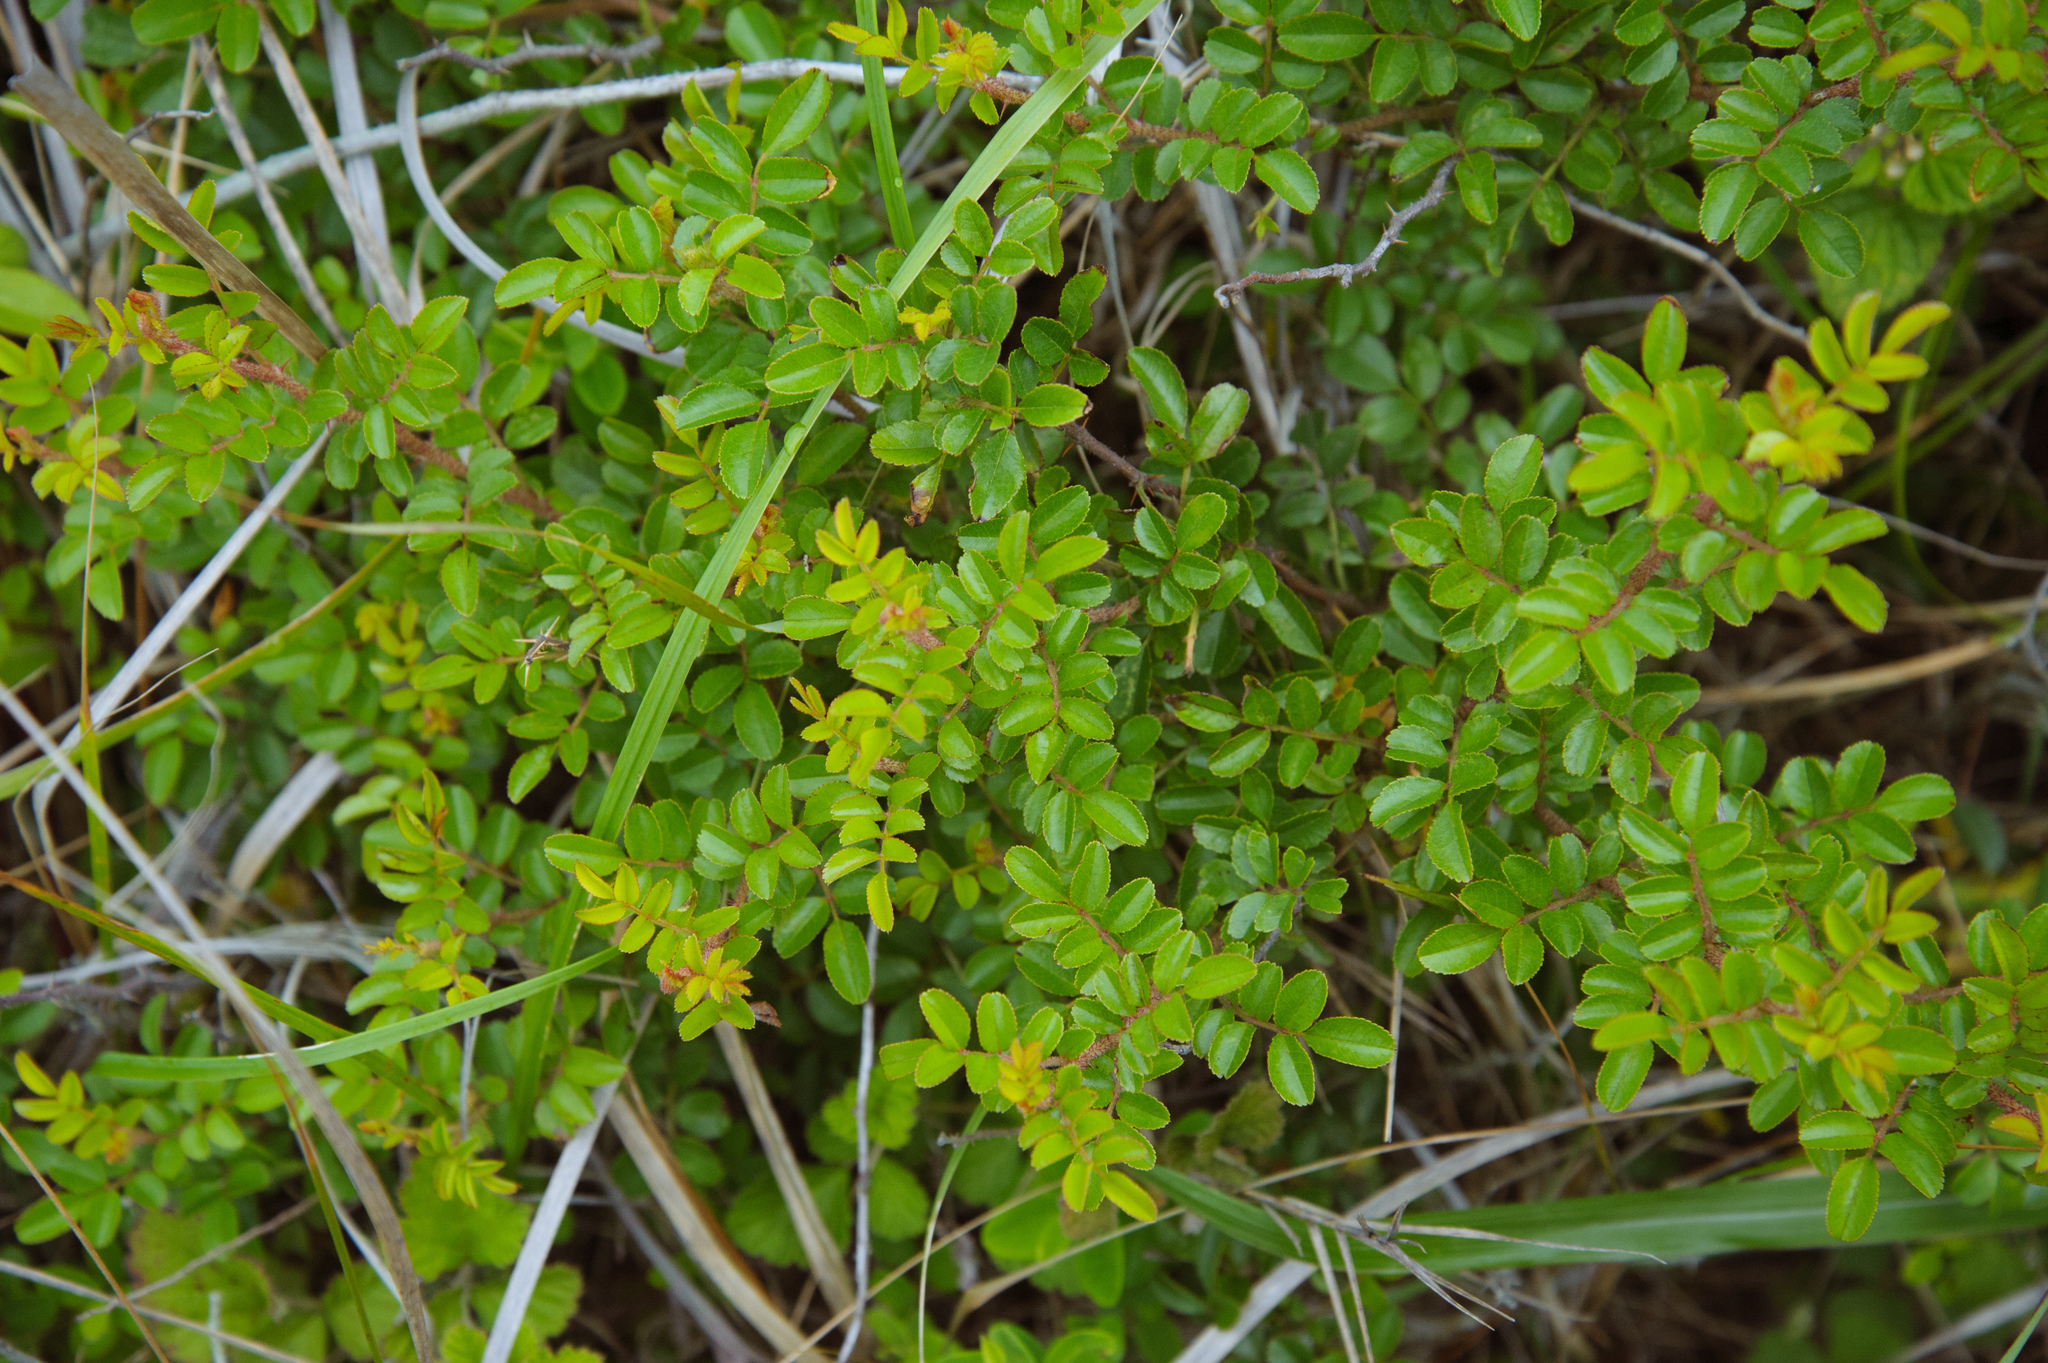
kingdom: Plantae
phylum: Tracheophyta
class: Magnoliopsida
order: Rosales
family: Rosaceae
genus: Rosa
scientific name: Rosa bracteata
